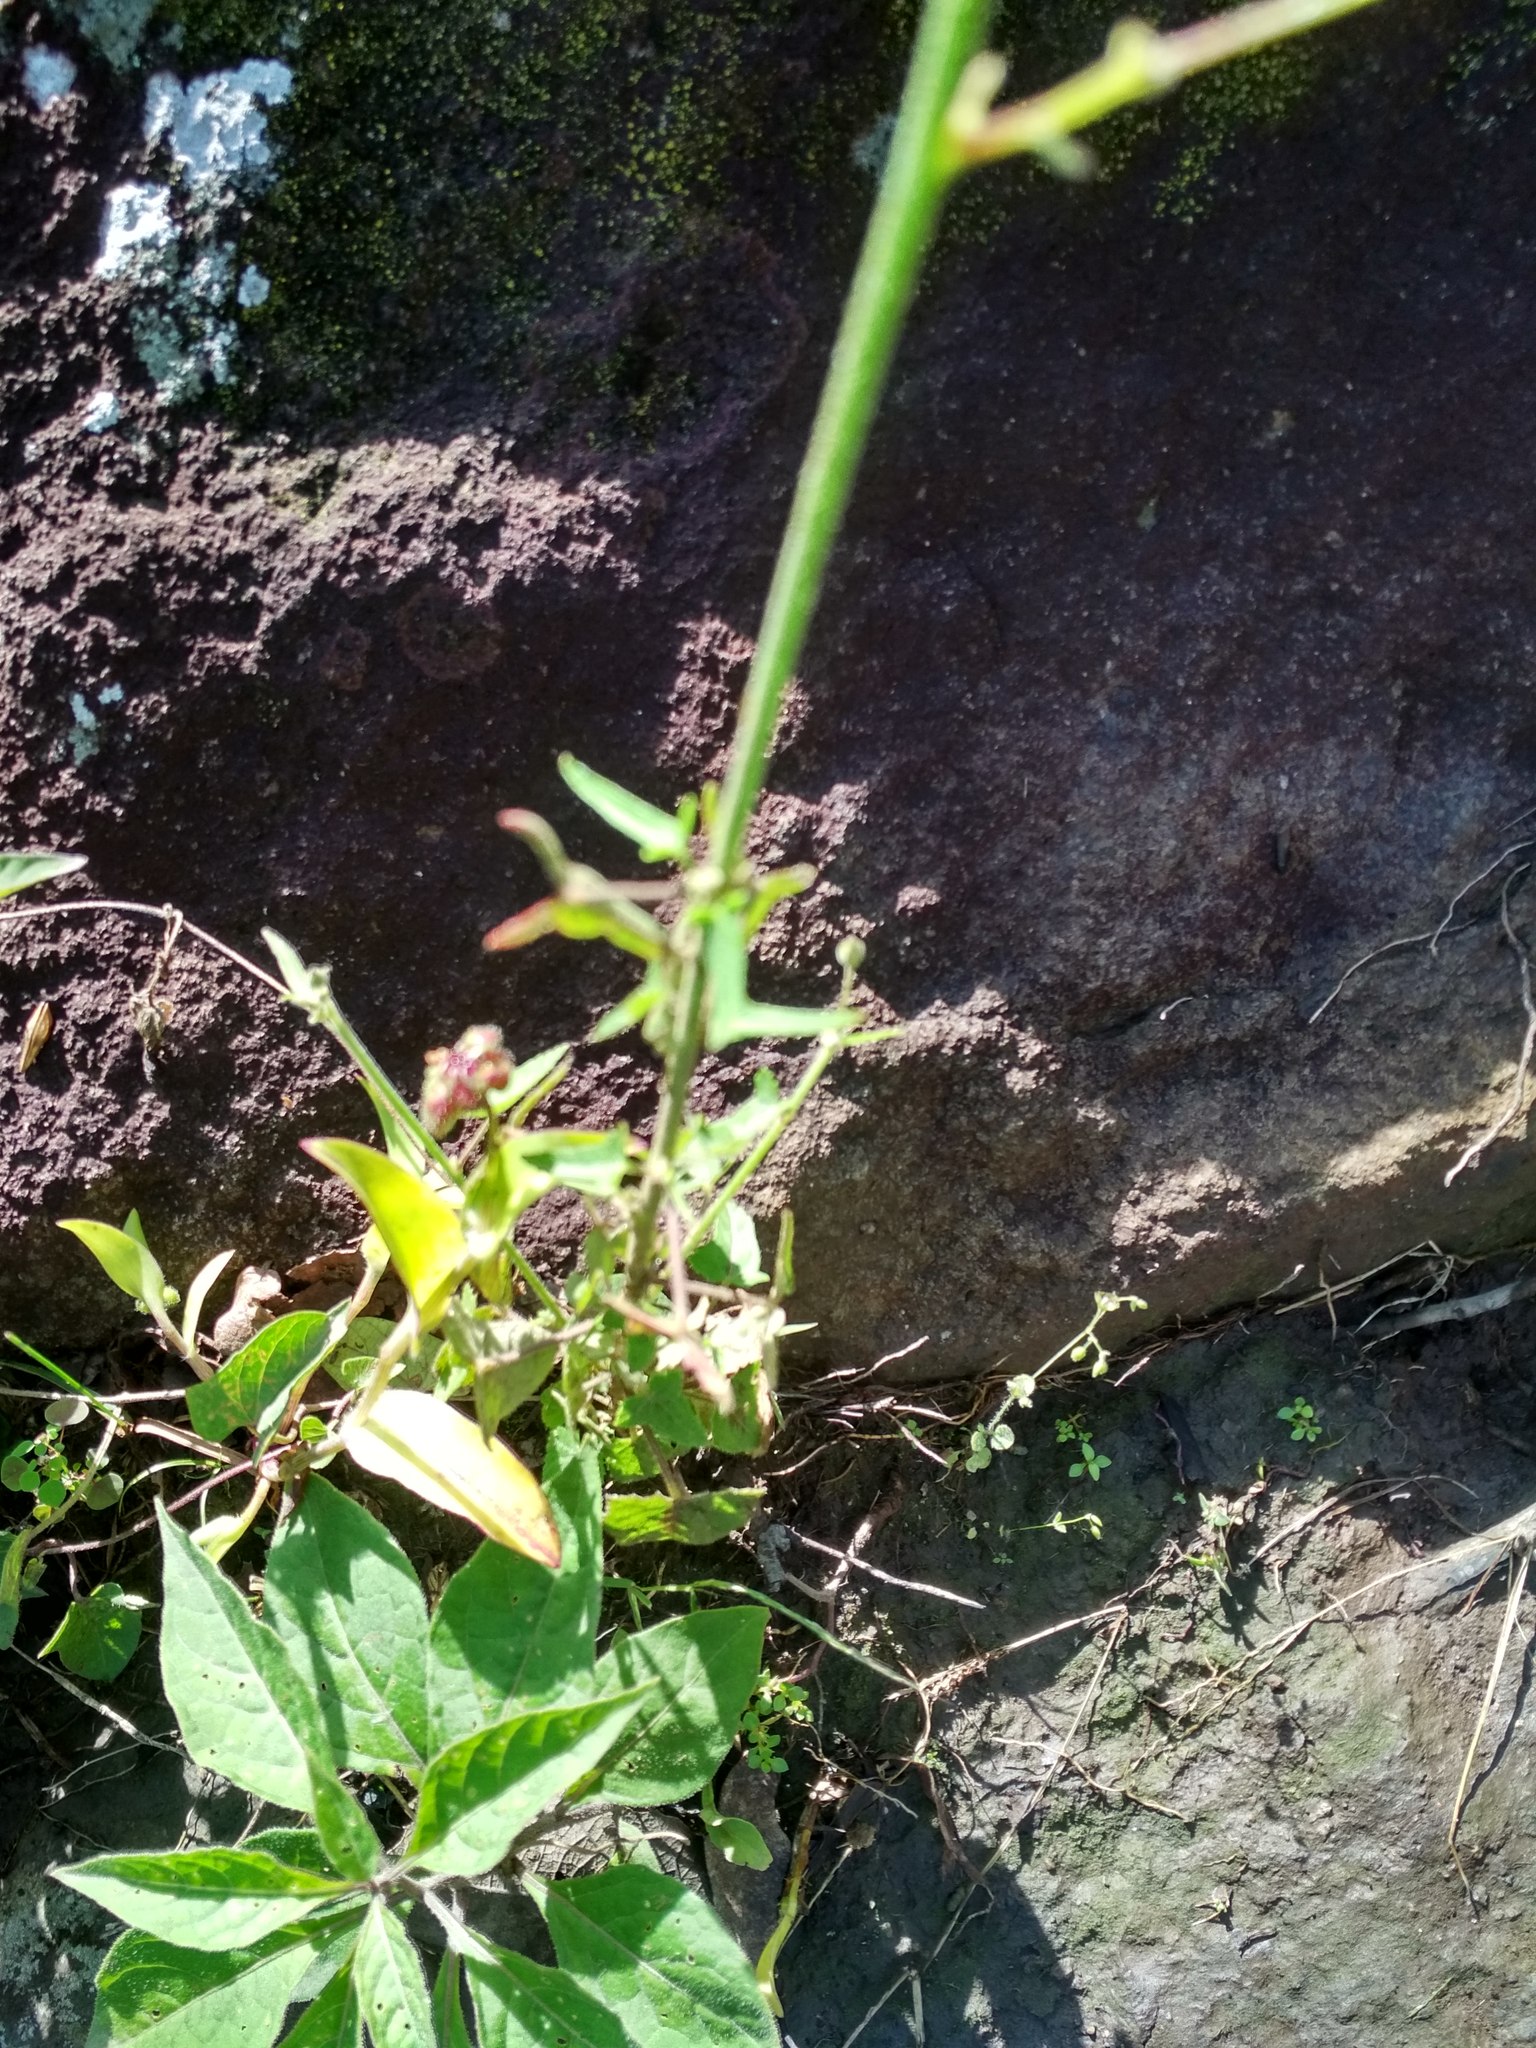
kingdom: Plantae
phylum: Tracheophyta
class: Magnoliopsida
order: Malvales
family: Malvaceae
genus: Periptera
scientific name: Periptera punicea
